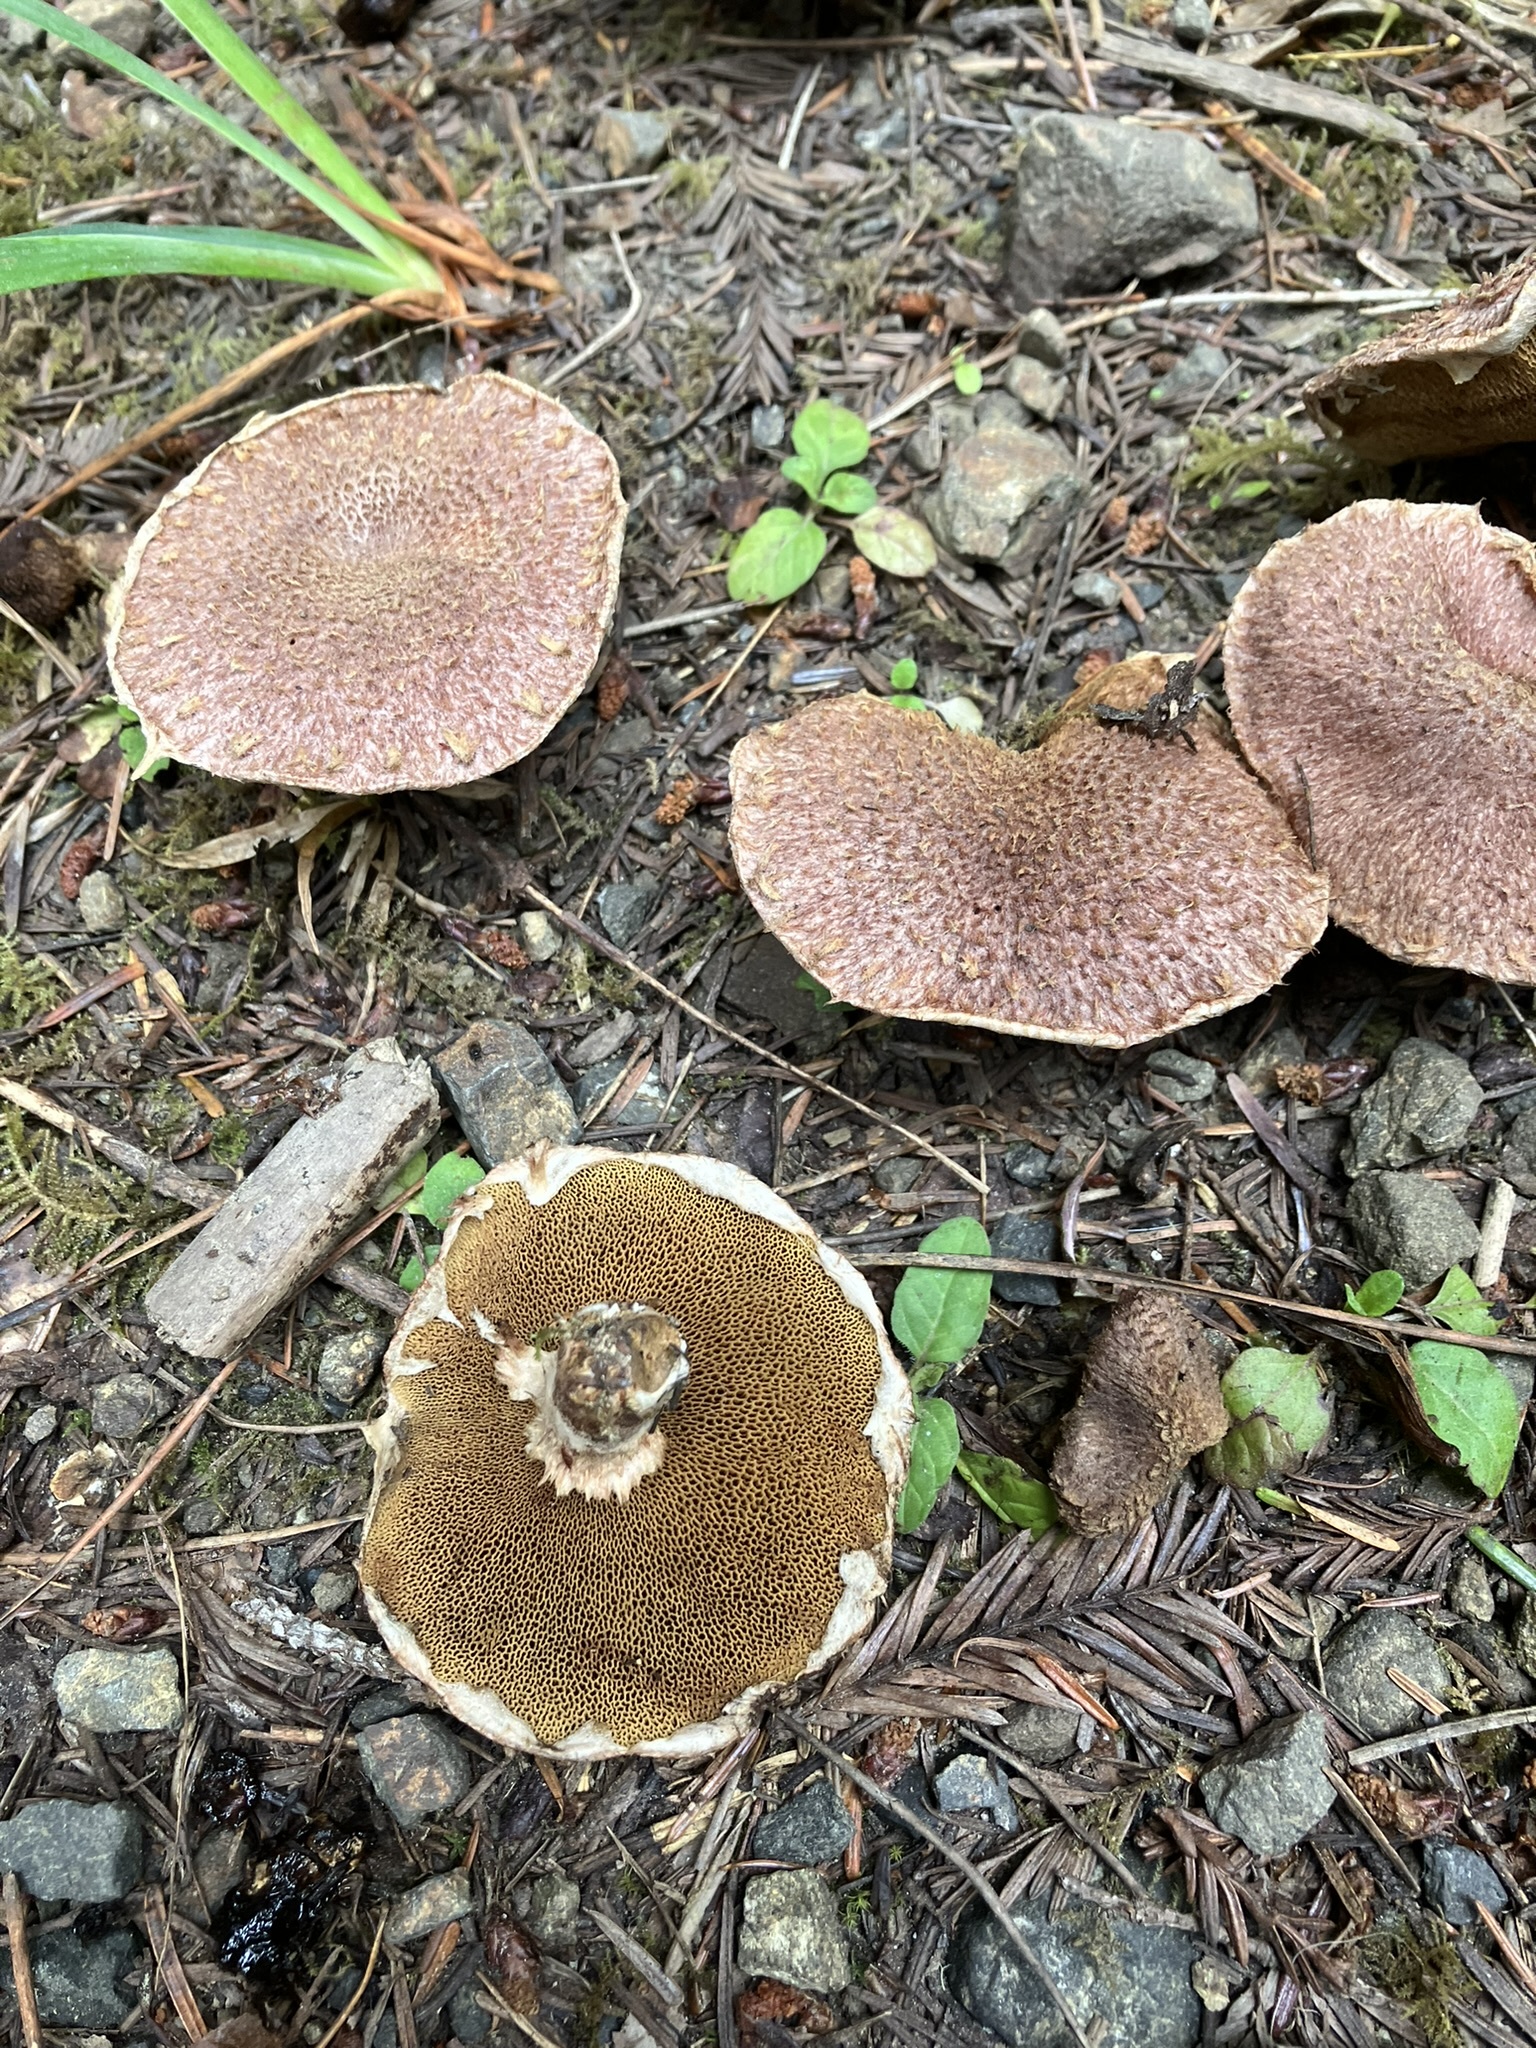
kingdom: Fungi
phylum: Basidiomycota
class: Agaricomycetes
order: Boletales
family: Suillaceae
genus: Suillus
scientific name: Suillus lakei
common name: Western painted suillus
